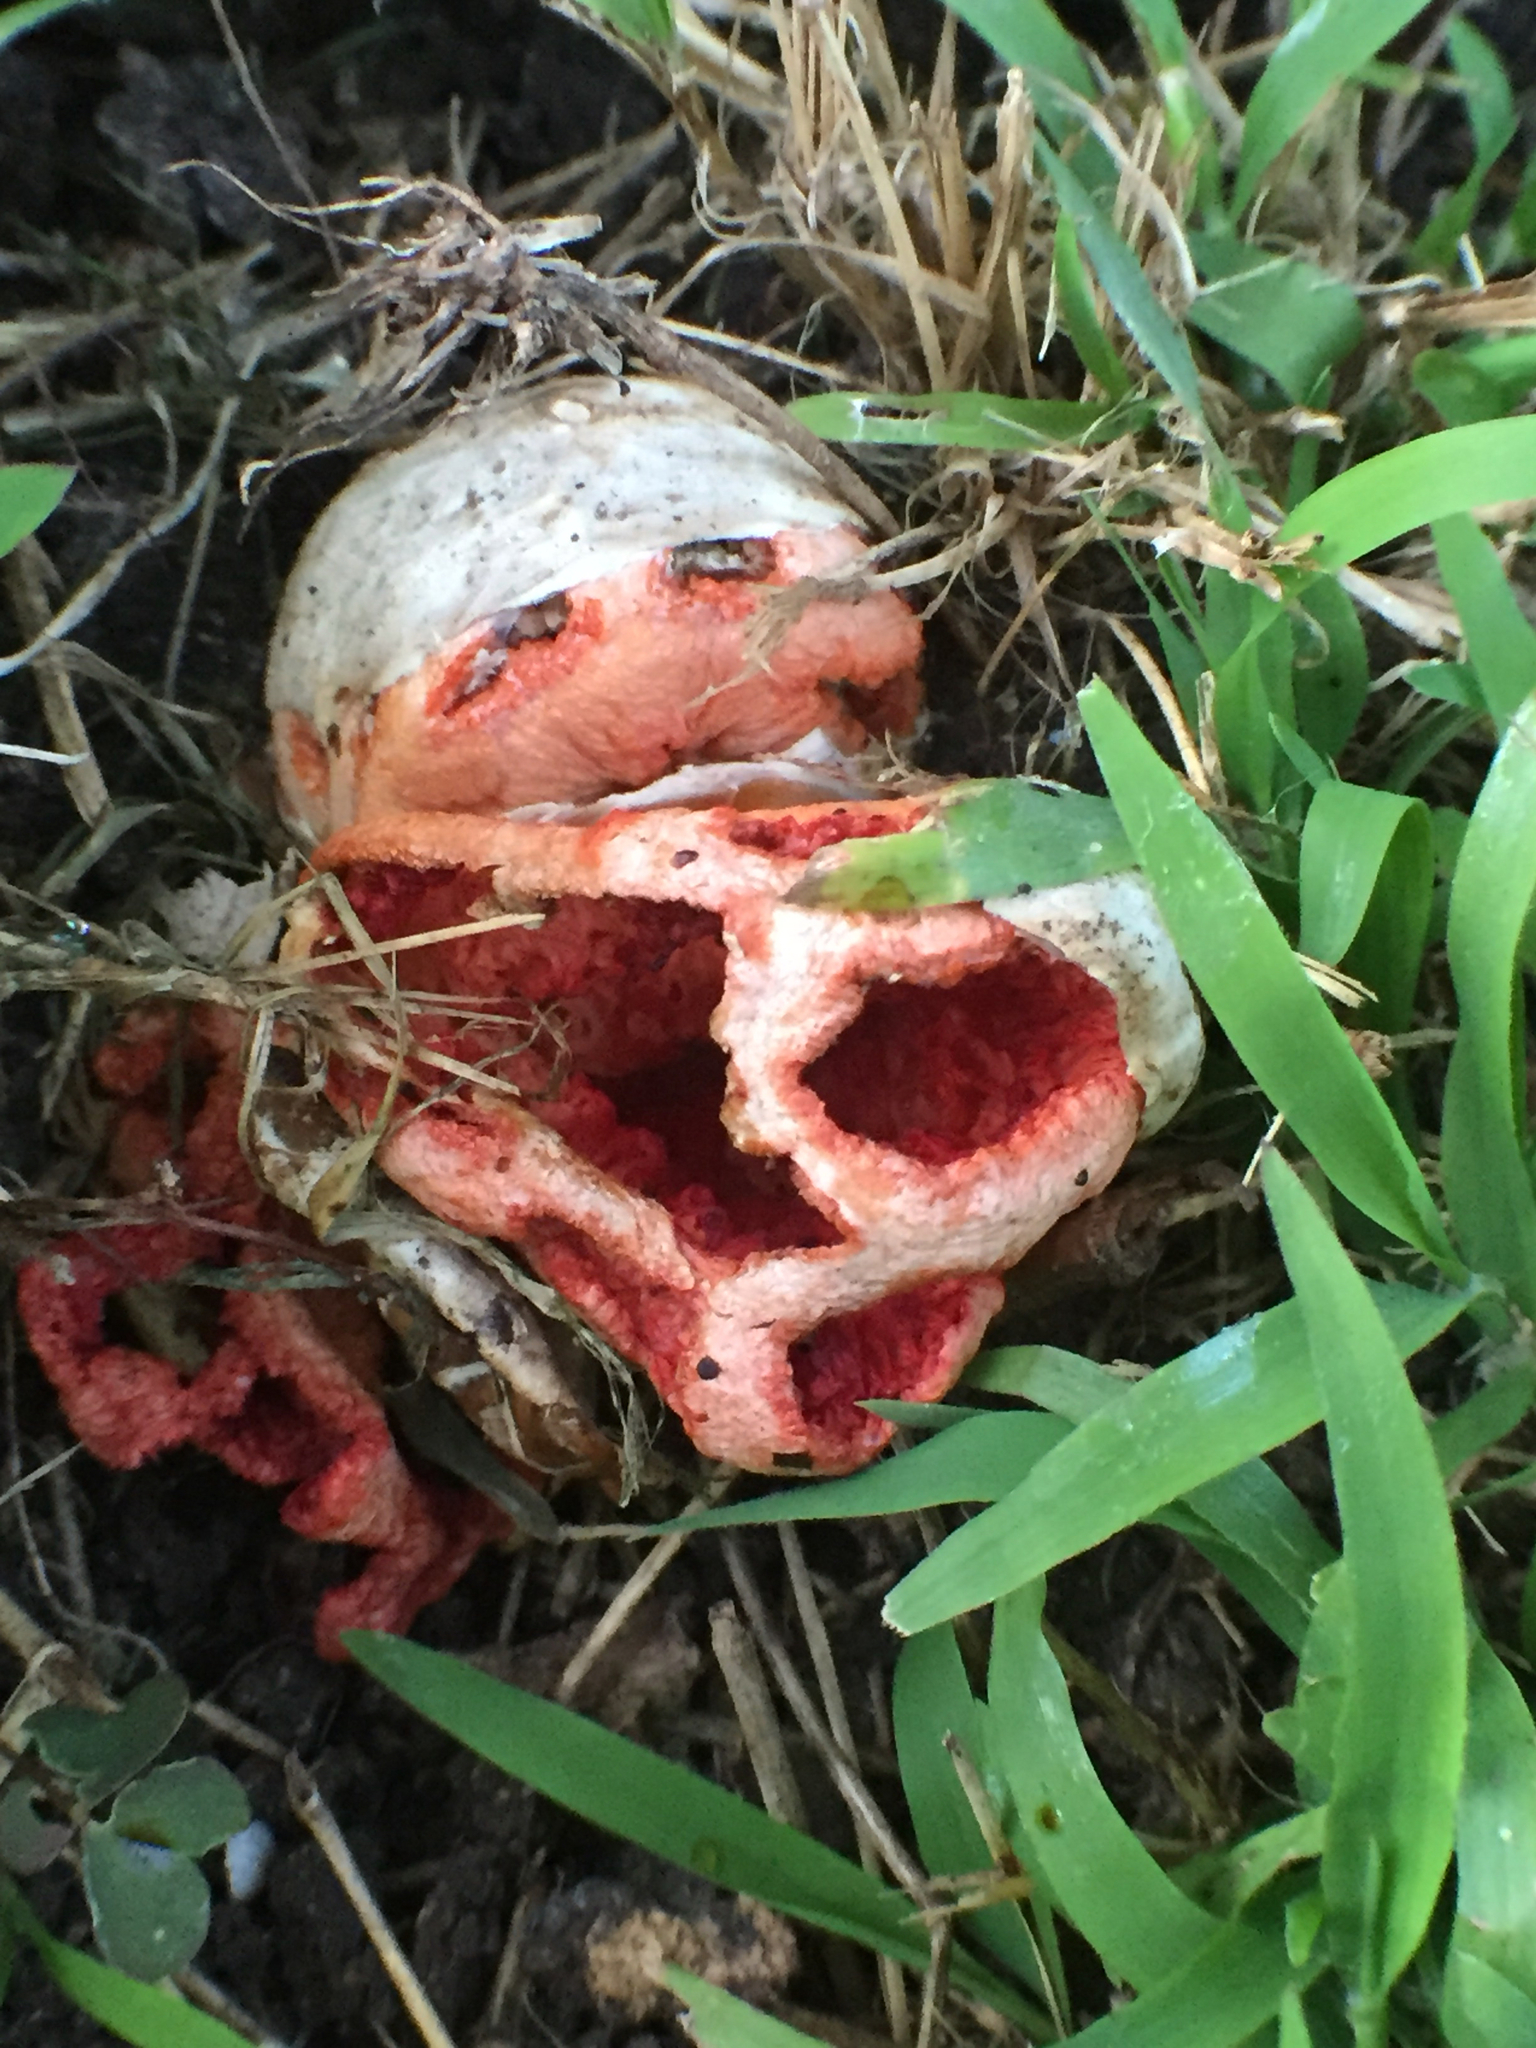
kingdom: Fungi
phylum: Basidiomycota
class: Agaricomycetes
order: Phallales
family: Phallaceae
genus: Clathrus
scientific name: Clathrus ruber
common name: Red cage
